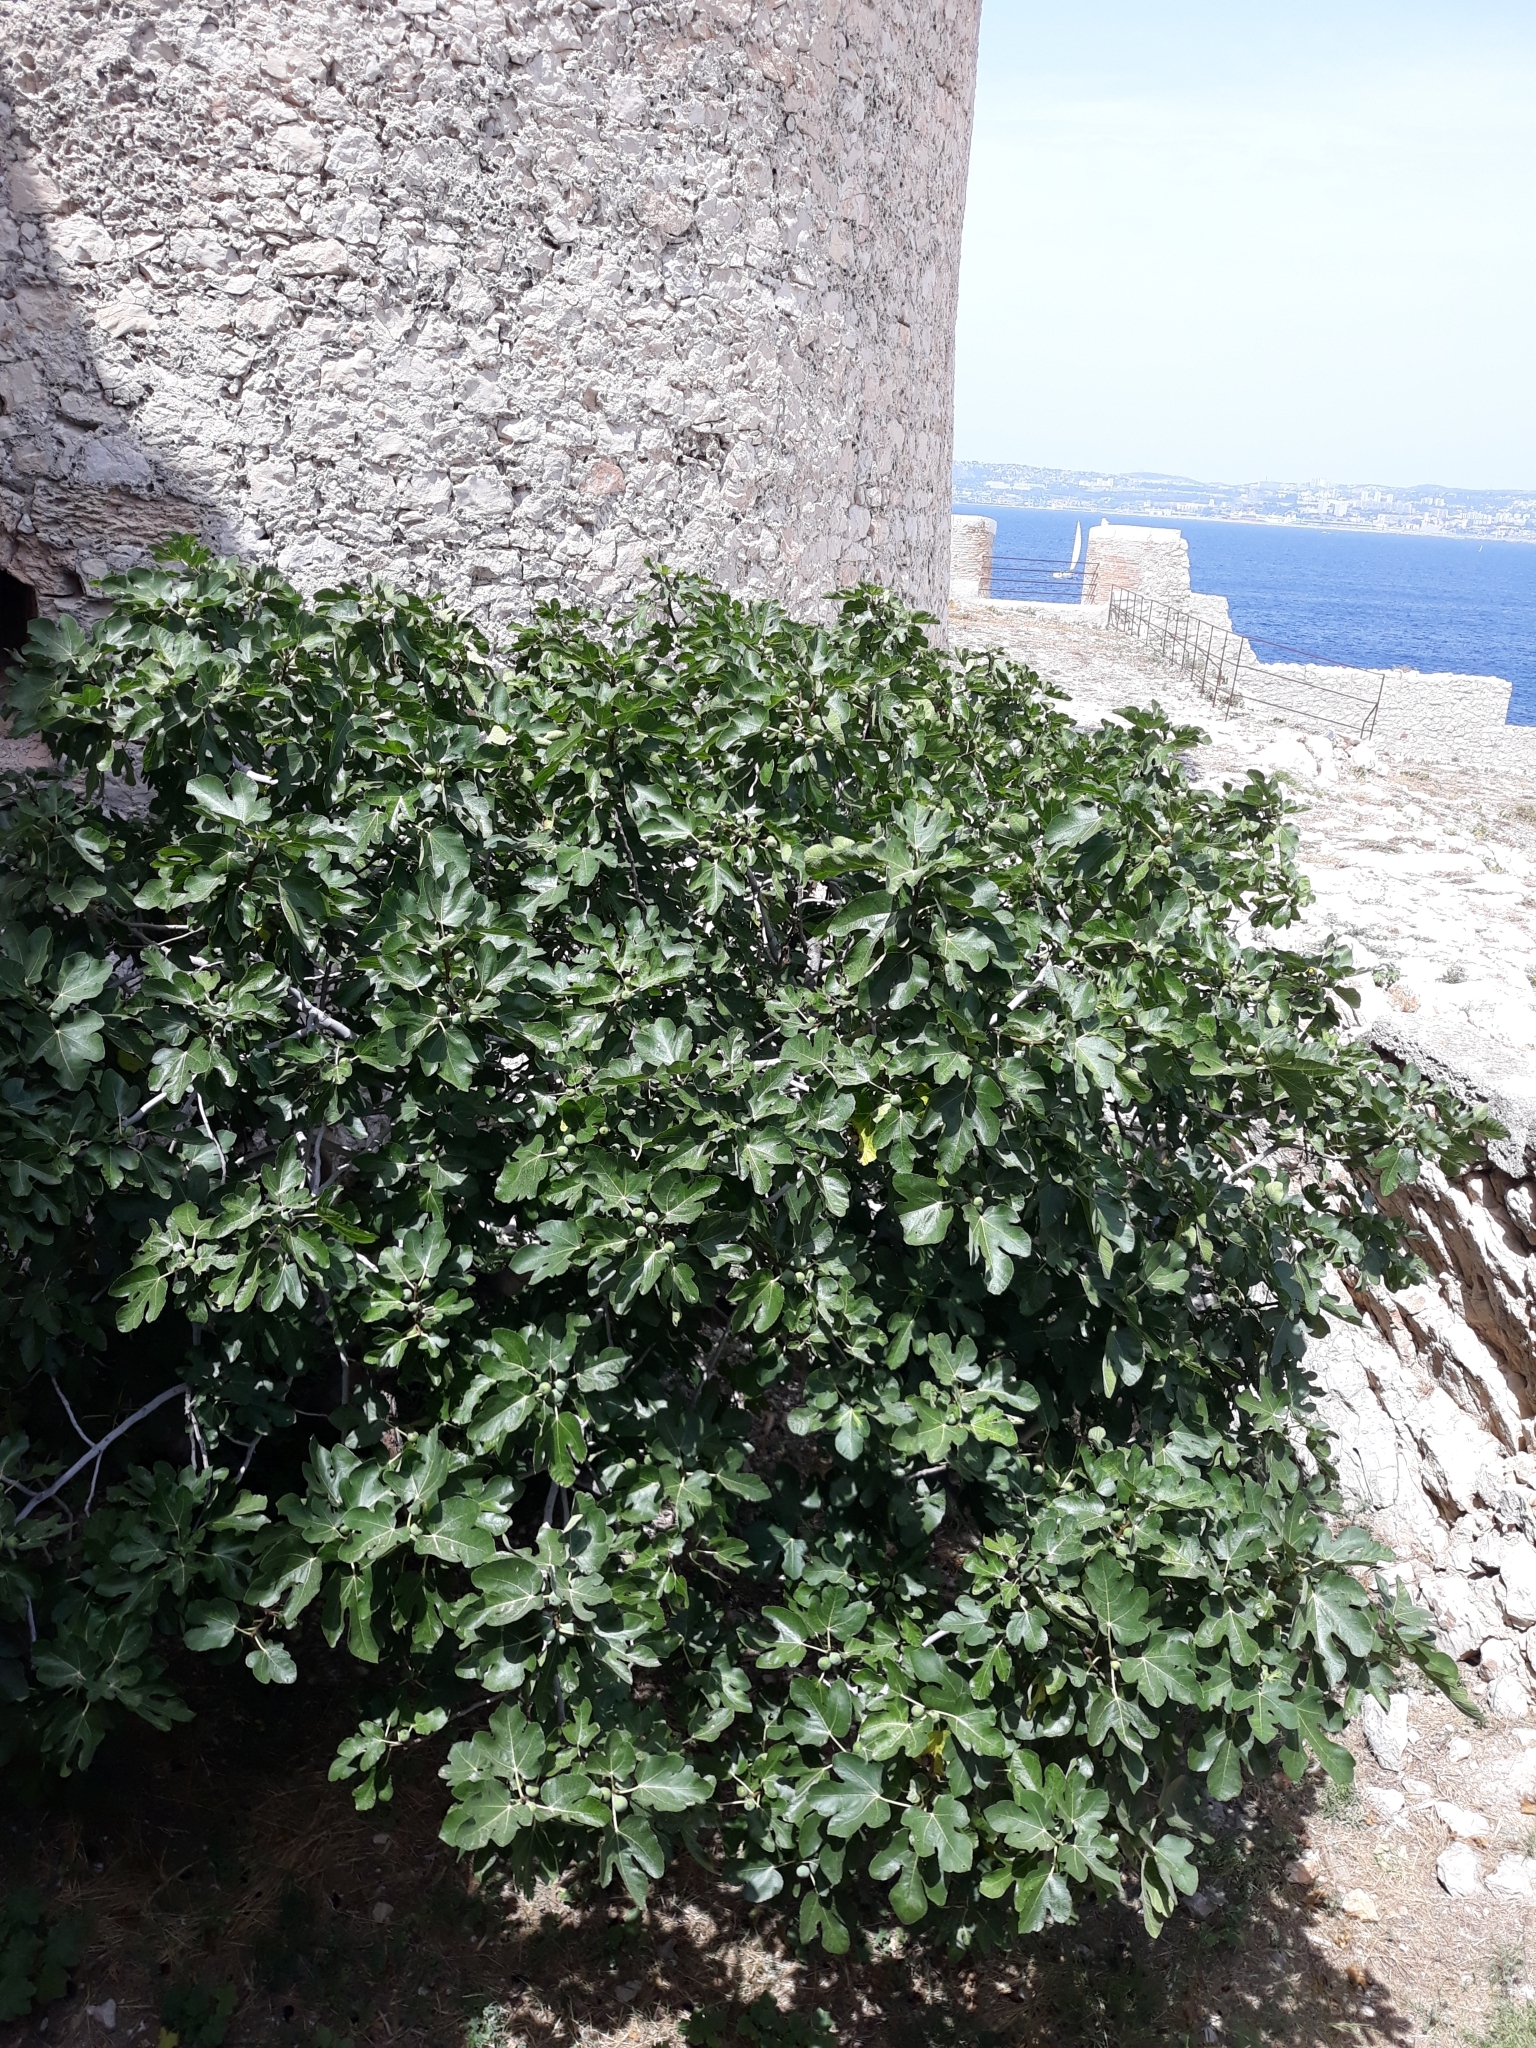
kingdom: Plantae
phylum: Tracheophyta
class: Magnoliopsida
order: Rosales
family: Moraceae
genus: Ficus
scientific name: Ficus carica
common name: Fig
